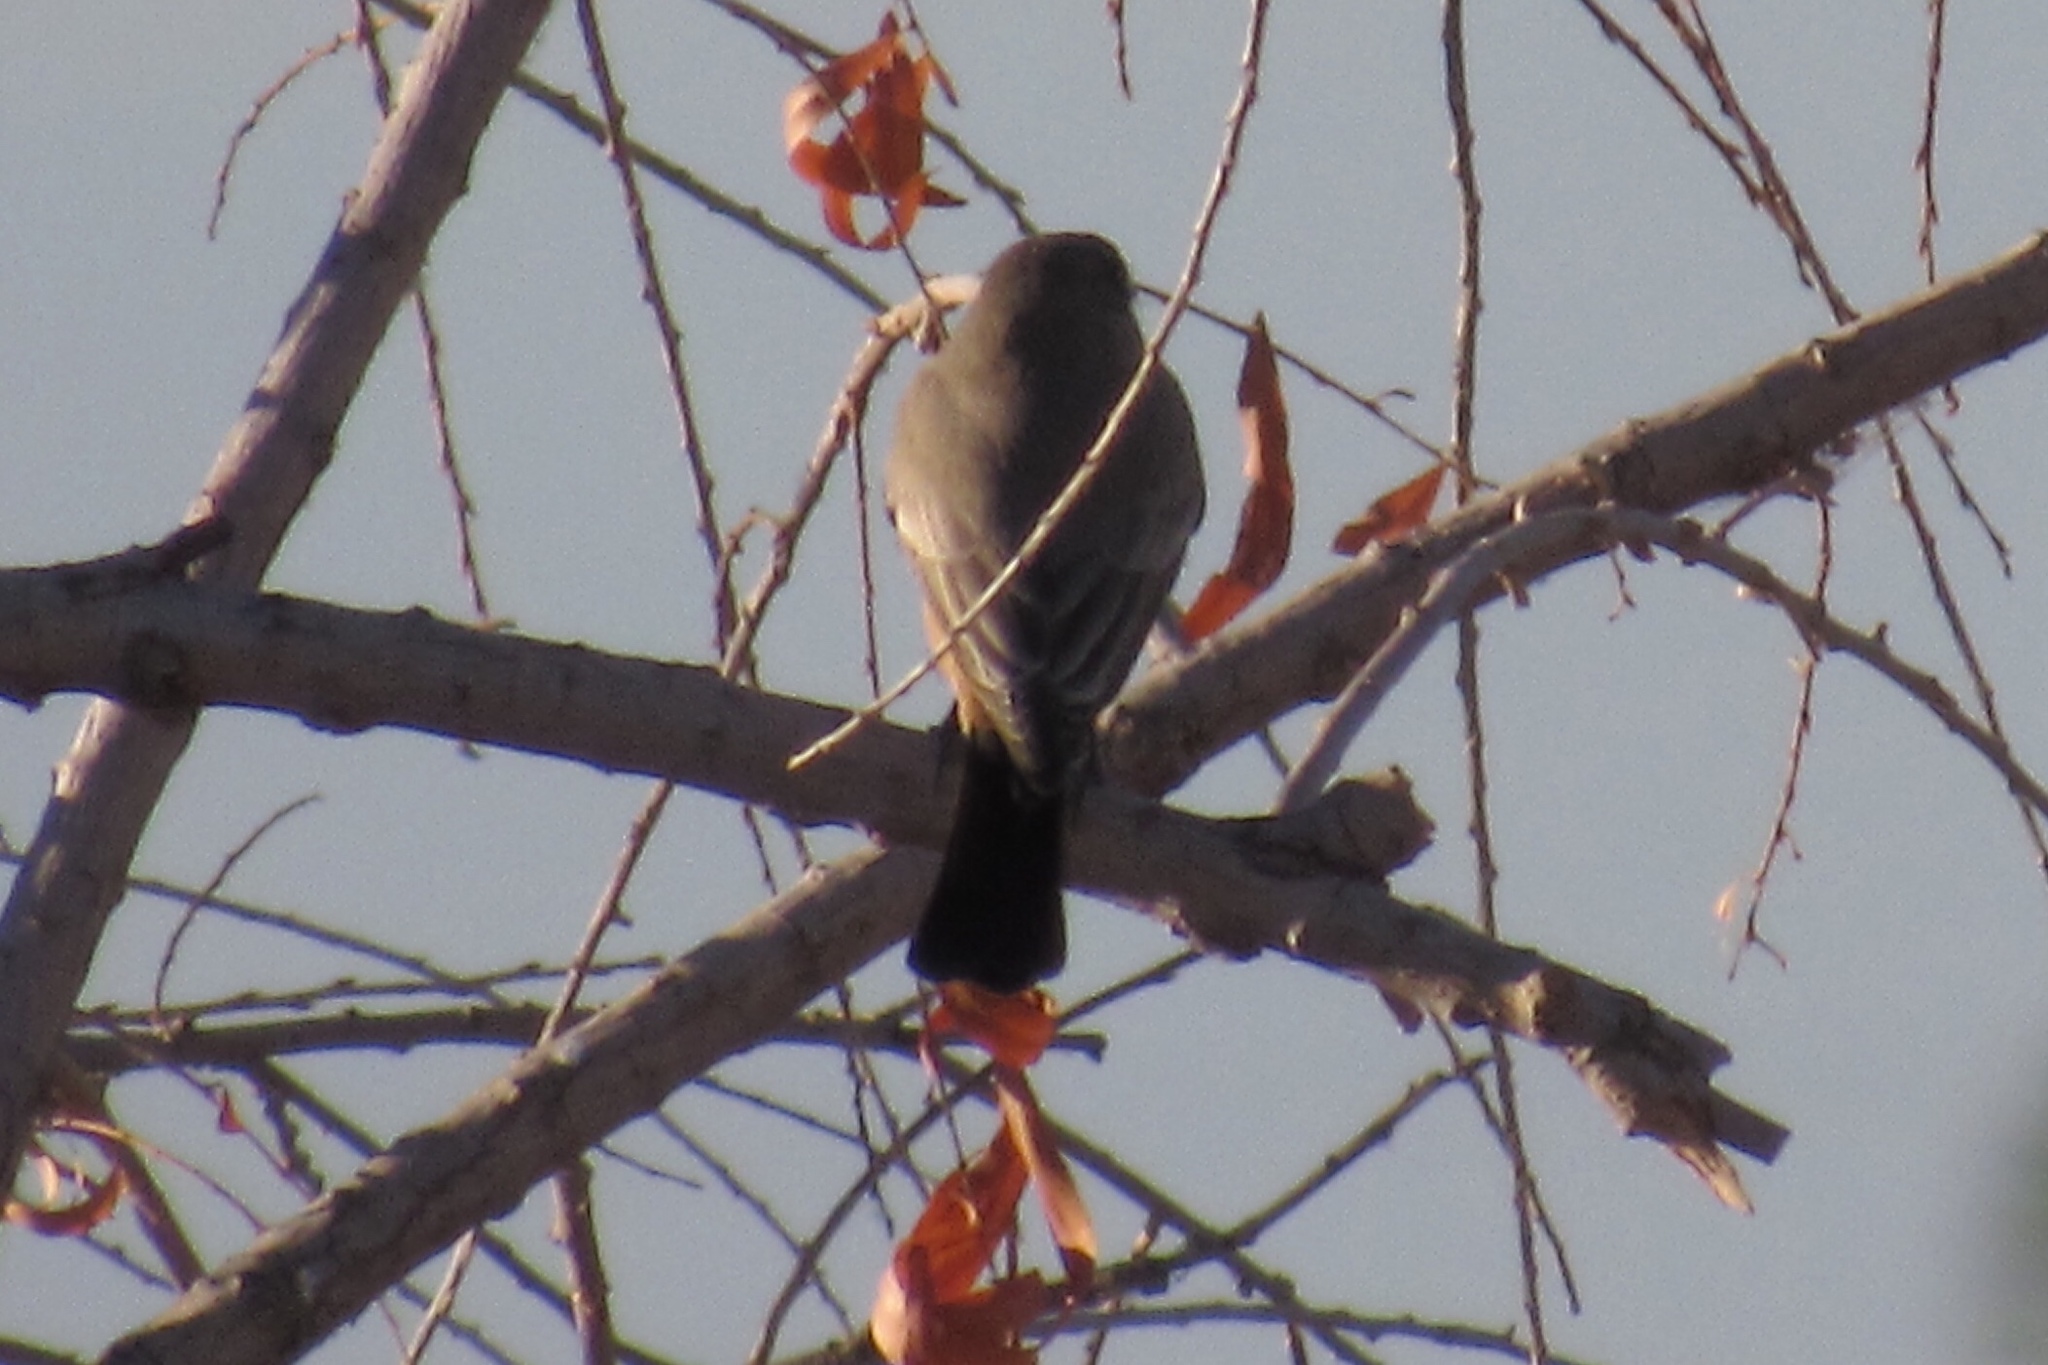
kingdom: Animalia
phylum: Chordata
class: Aves
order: Passeriformes
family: Tyrannidae
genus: Sayornis
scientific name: Sayornis saya
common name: Say's phoebe
